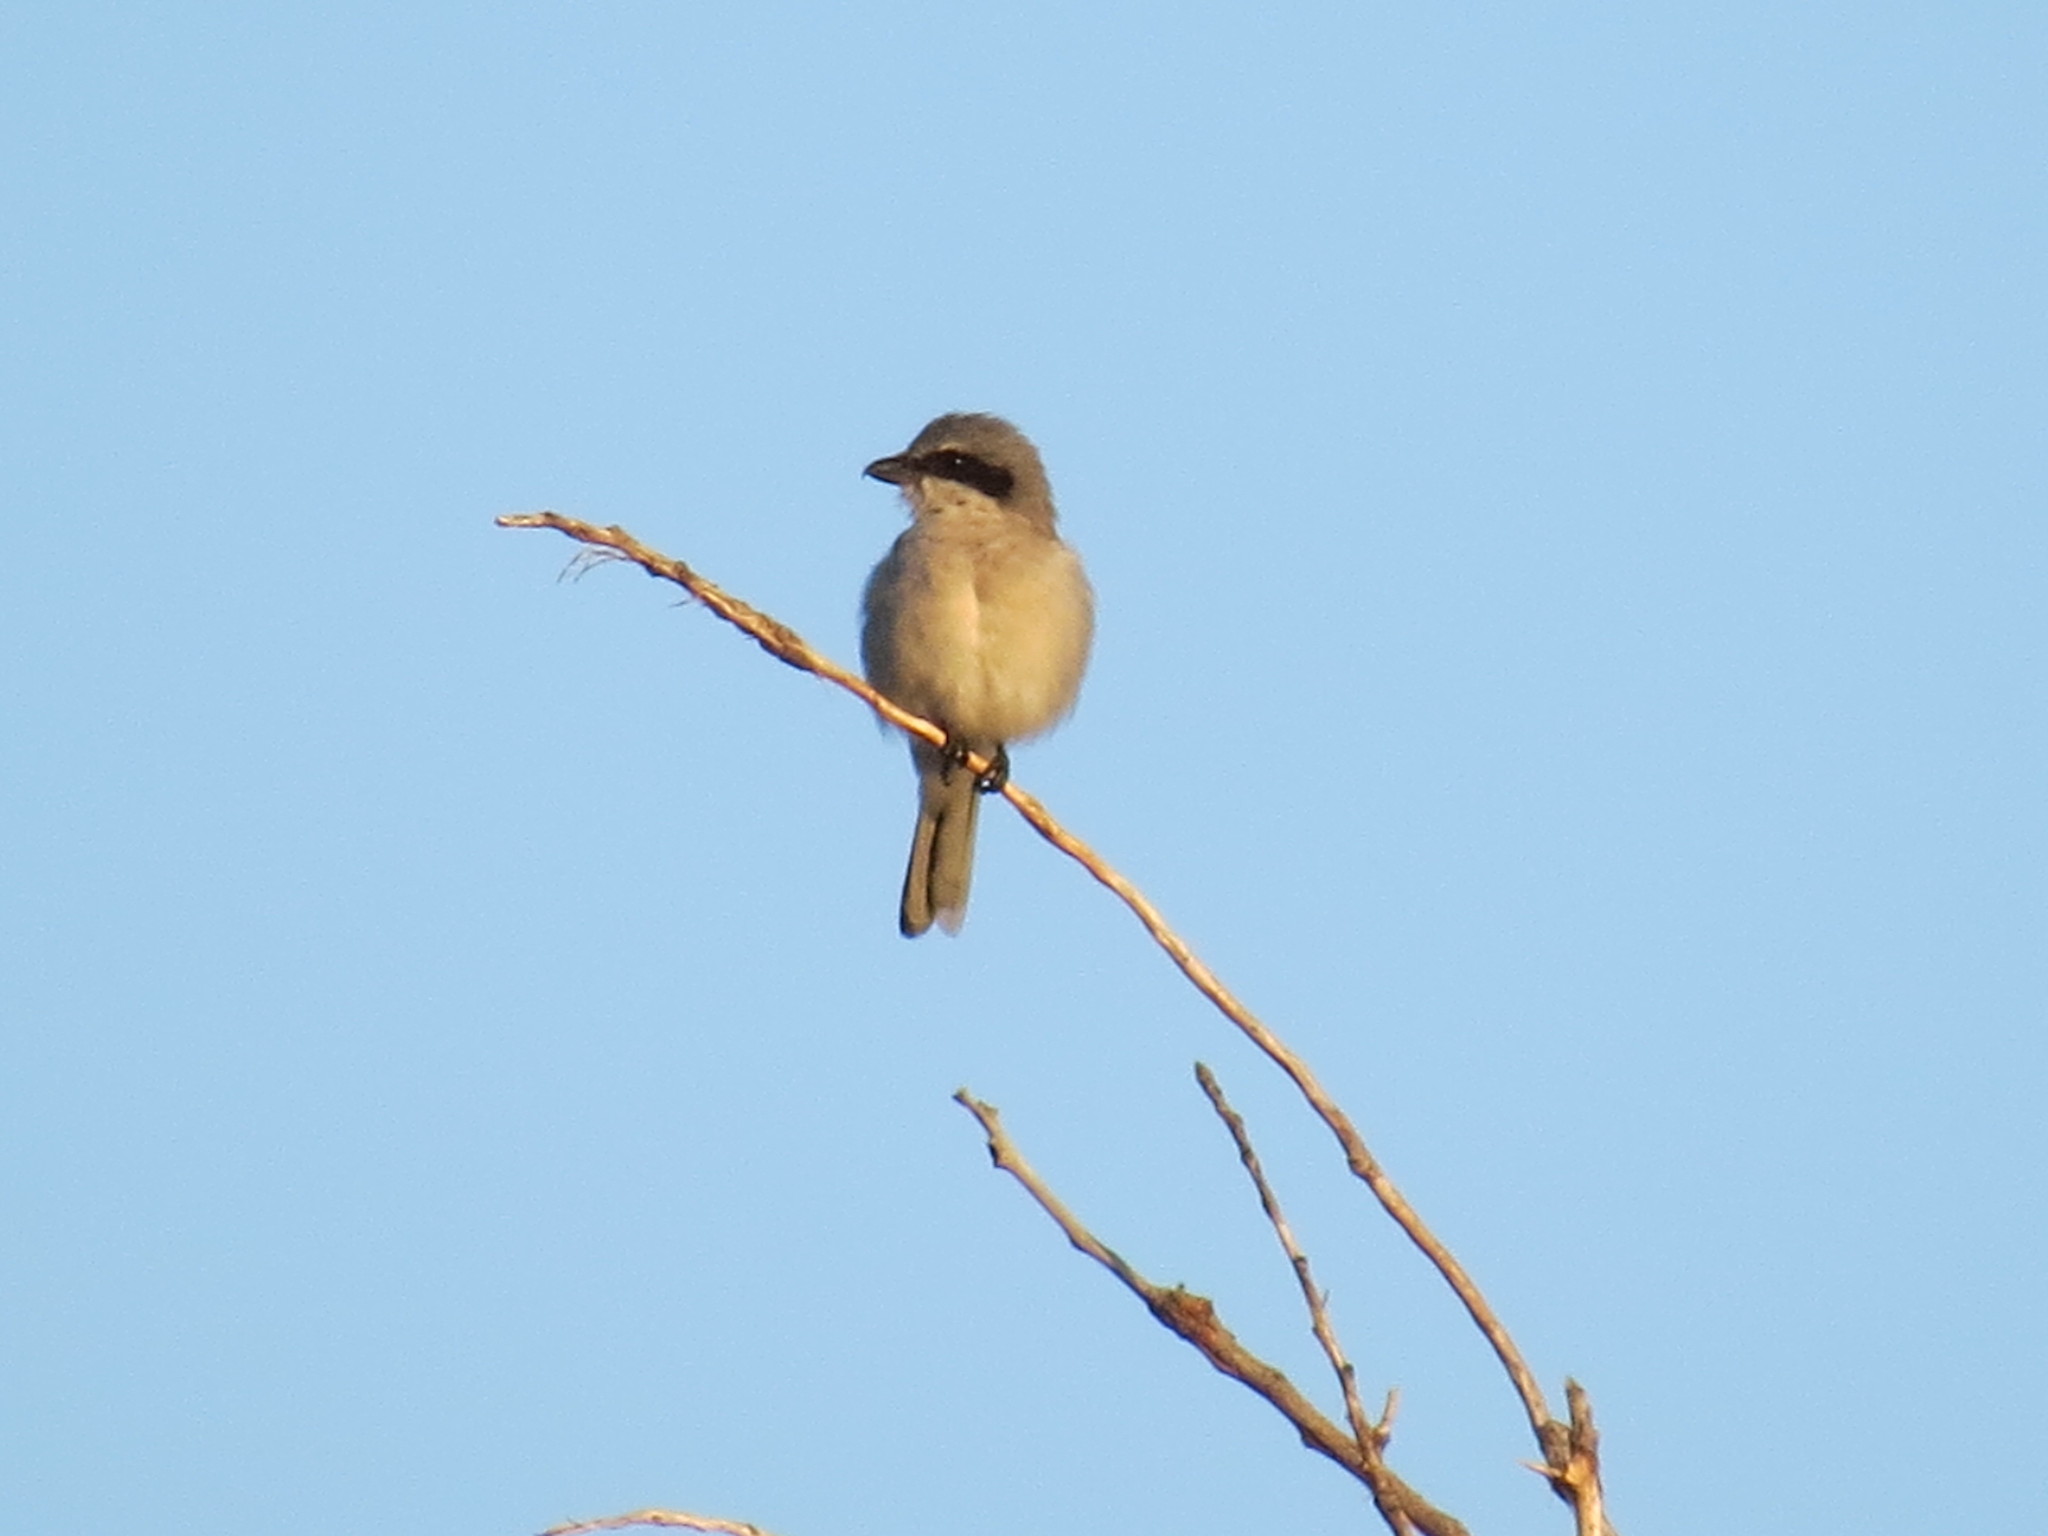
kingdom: Animalia
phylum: Chordata
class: Aves
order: Passeriformes
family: Laniidae
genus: Lanius
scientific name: Lanius ludovicianus
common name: Loggerhead shrike
